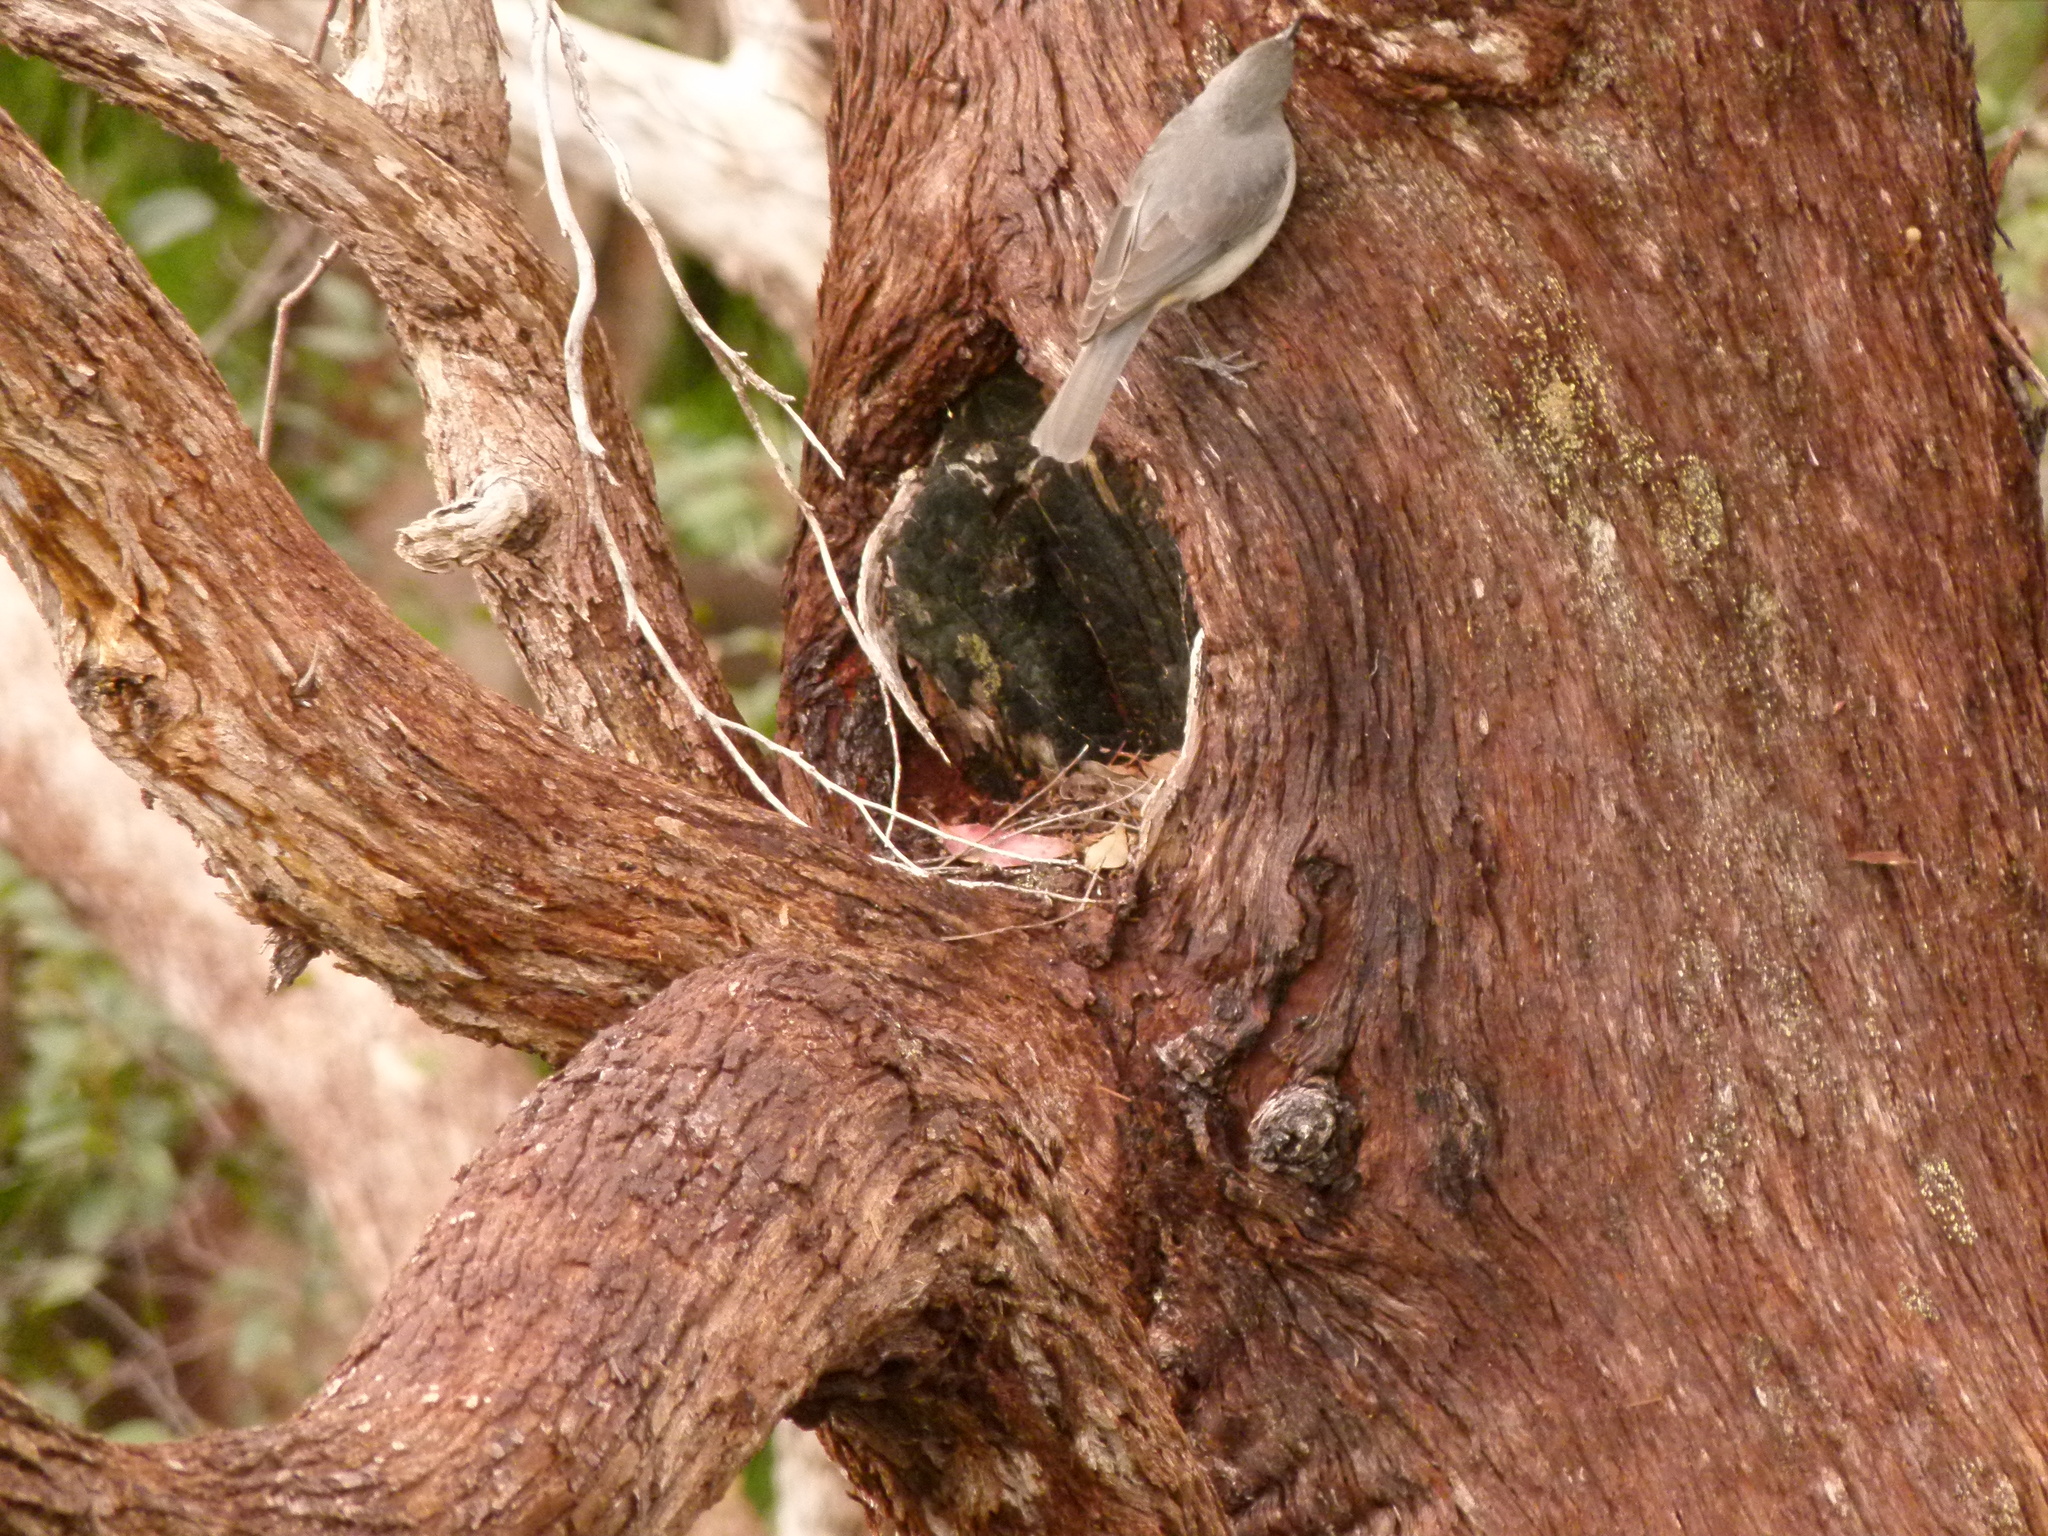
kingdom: Animalia
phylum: Chordata
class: Aves
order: Passeriformes
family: Pachycephalidae
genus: Colluricincla
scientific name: Colluricincla harmonica
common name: Grey shrikethrush
